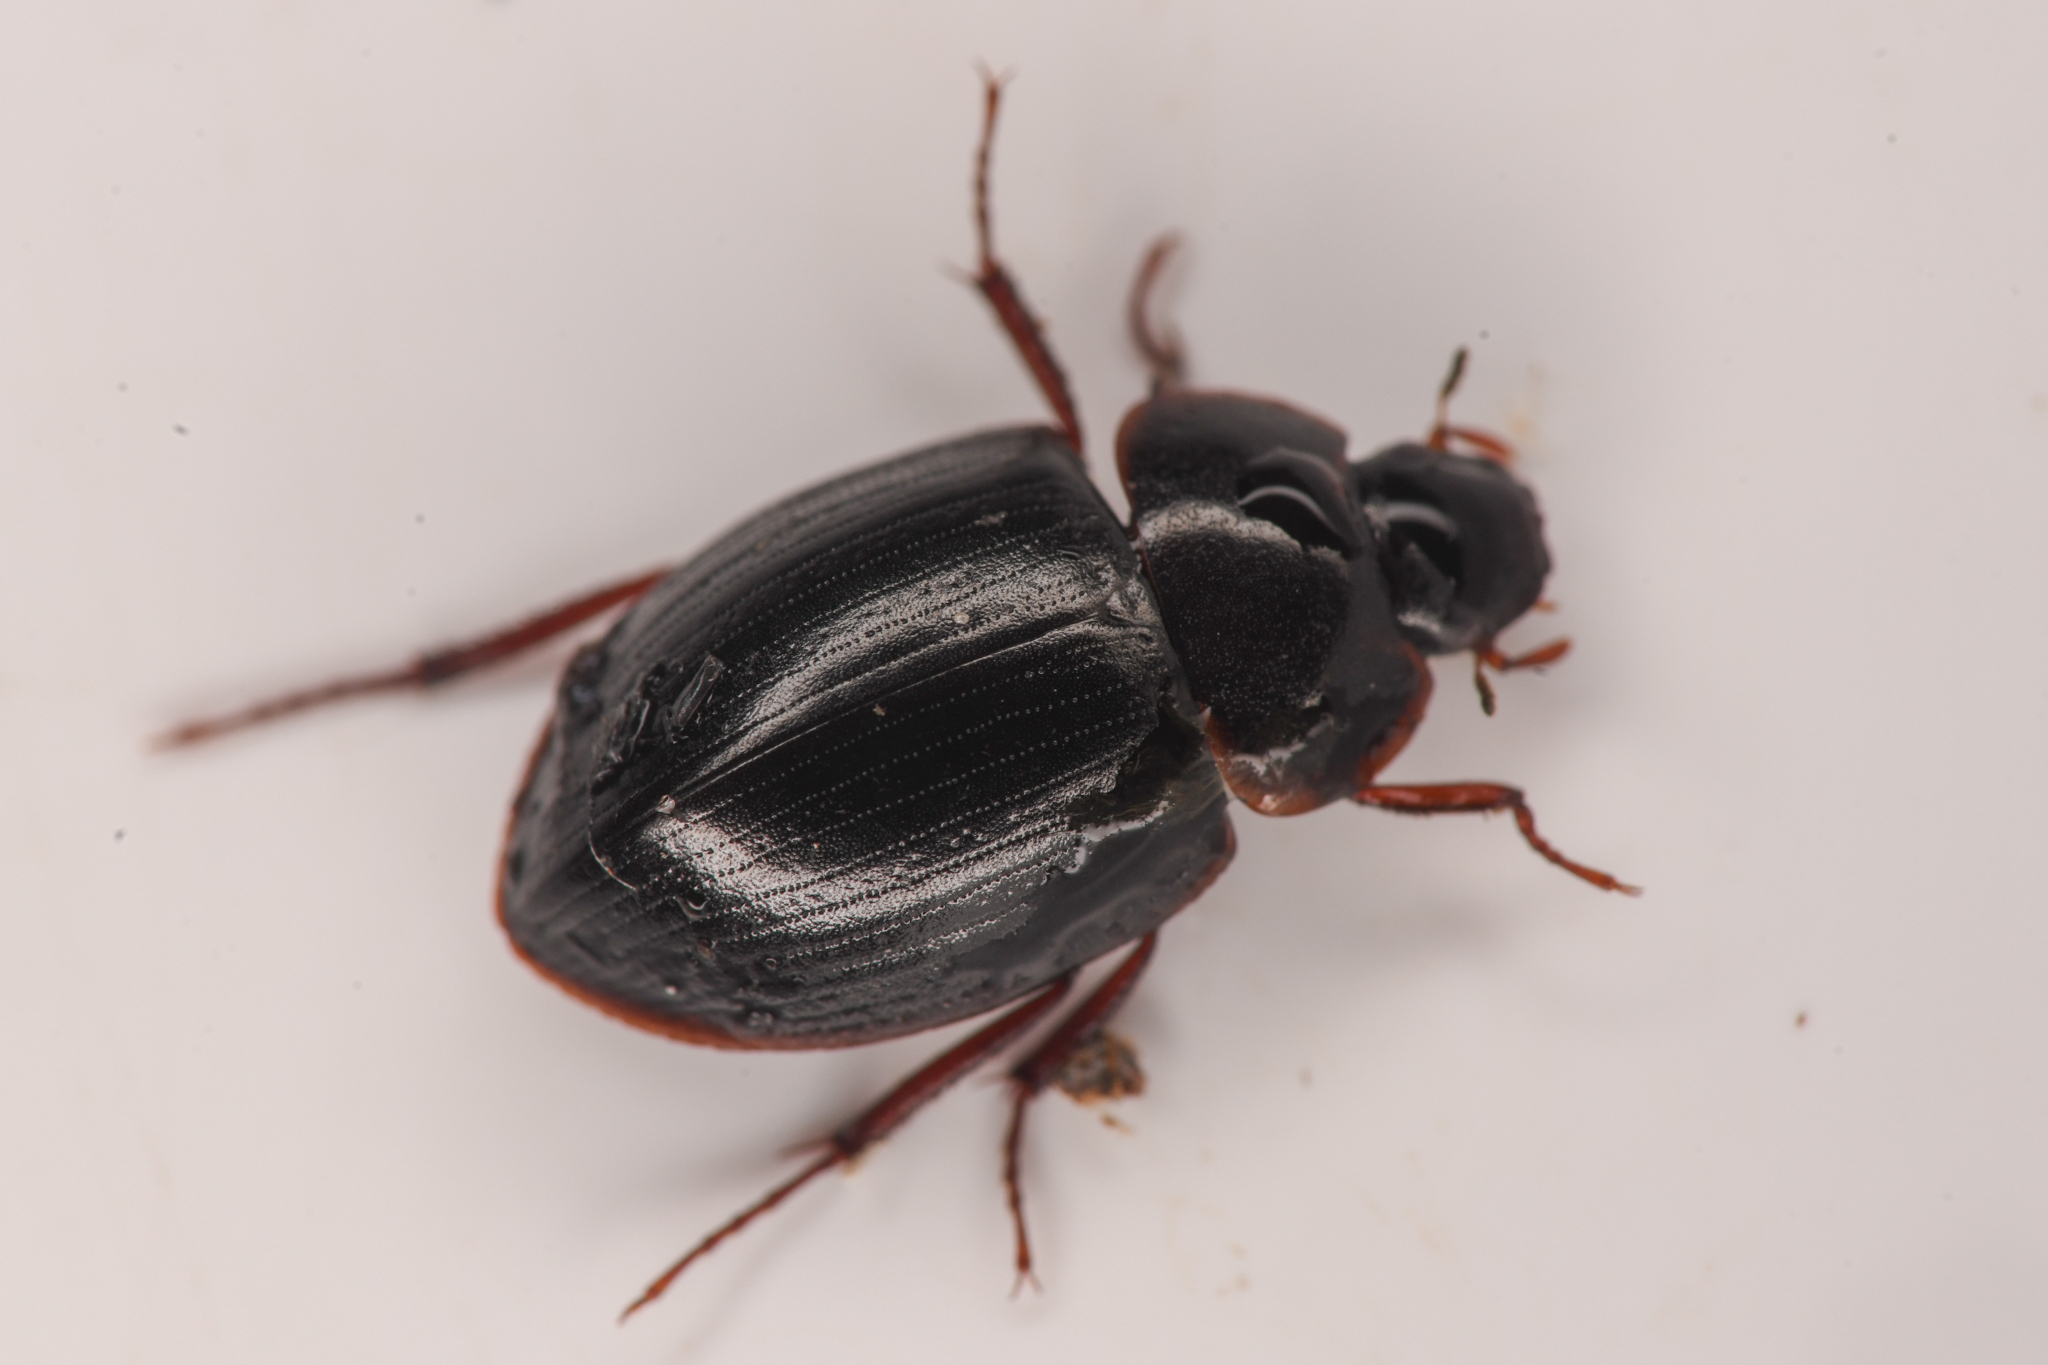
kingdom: Animalia
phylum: Arthropoda
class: Insecta
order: Coleoptera
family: Hydrophilidae
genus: Ametor
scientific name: Ametor latus
